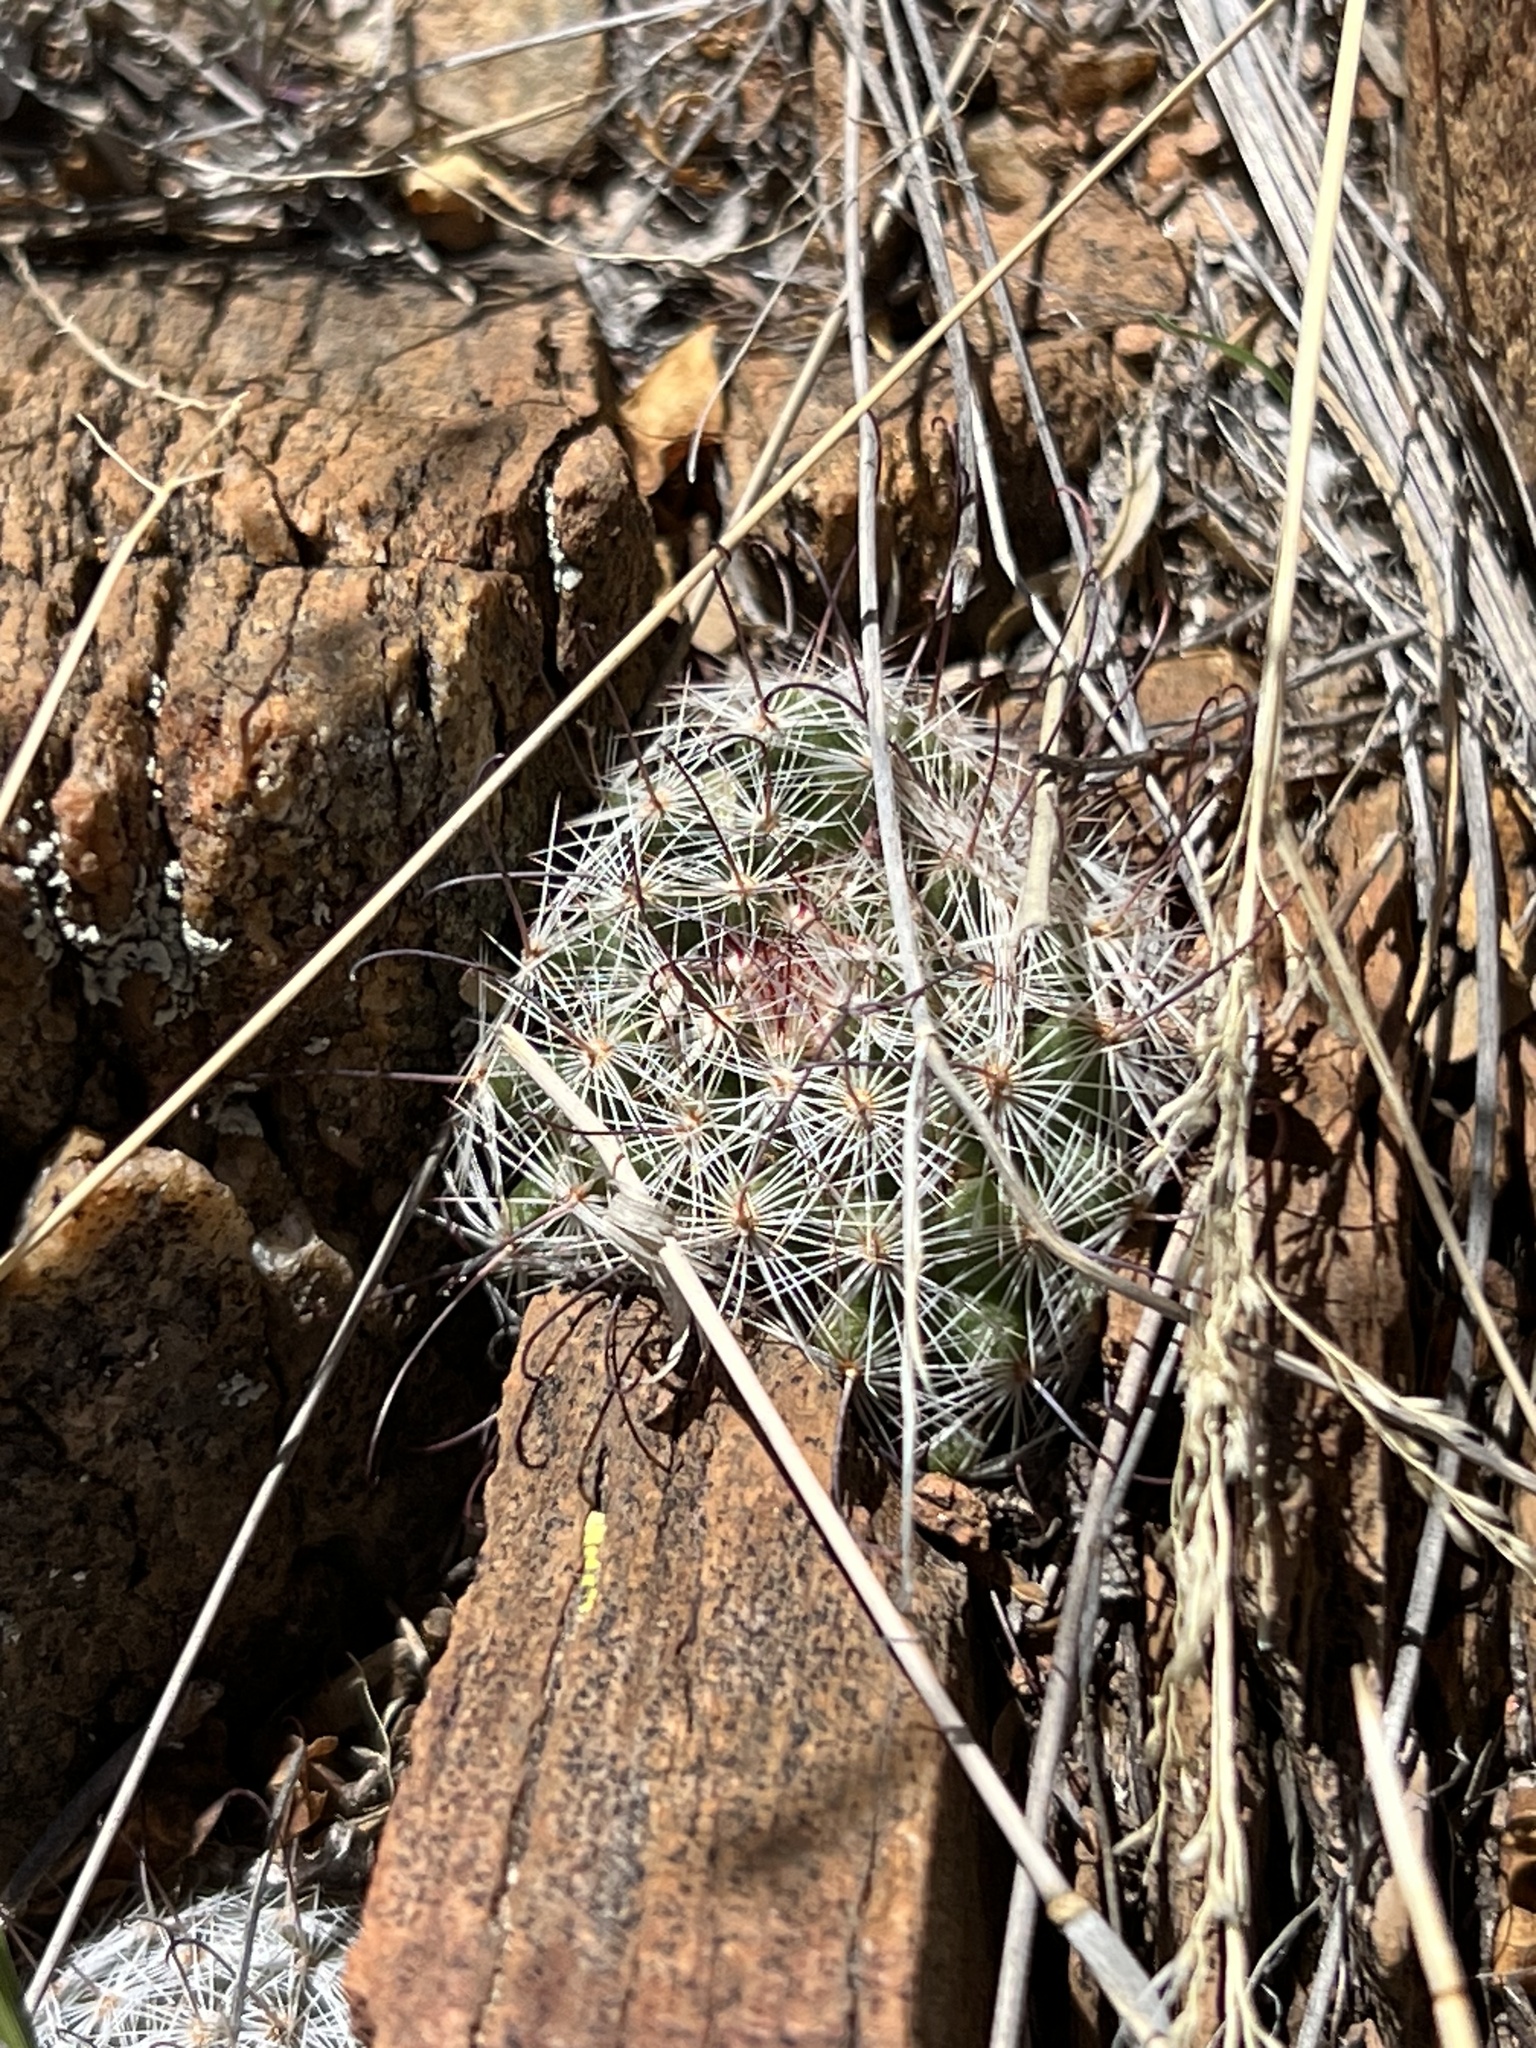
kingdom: Plantae
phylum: Tracheophyta
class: Magnoliopsida
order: Caryophyllales
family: Cactaceae
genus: Cochemiea
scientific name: Cochemiea grahamii
